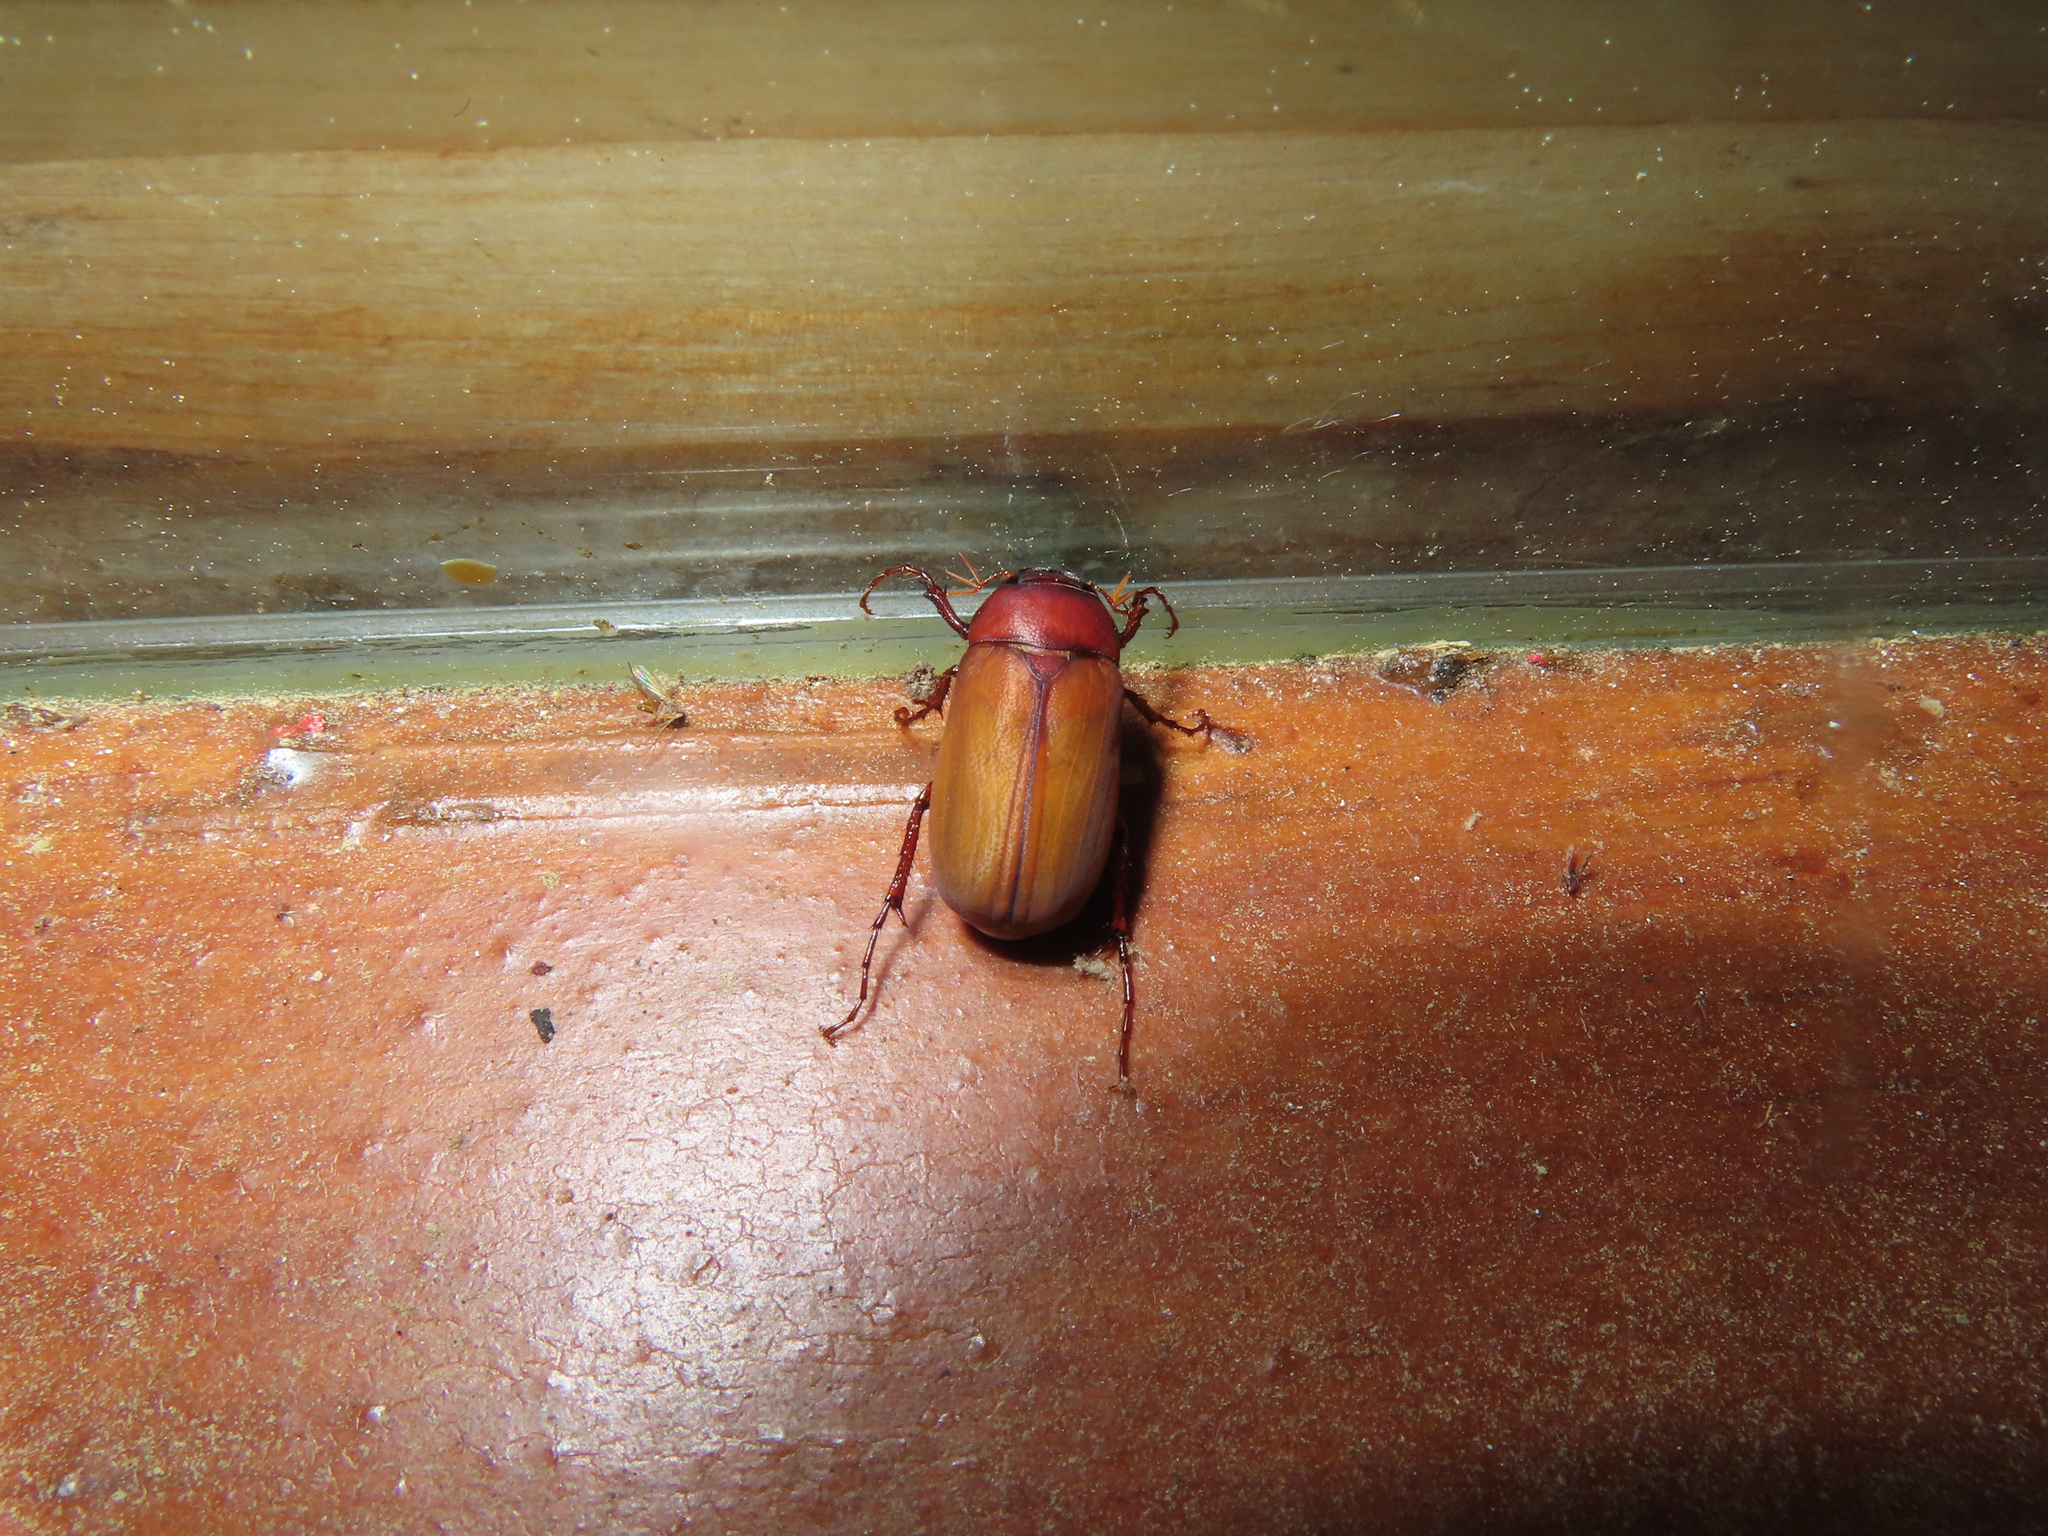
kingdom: Animalia
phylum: Arthropoda
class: Insecta
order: Coleoptera
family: Scarabaeidae
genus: Maladera
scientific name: Maladera formosae
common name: Asiatic garden beetle
